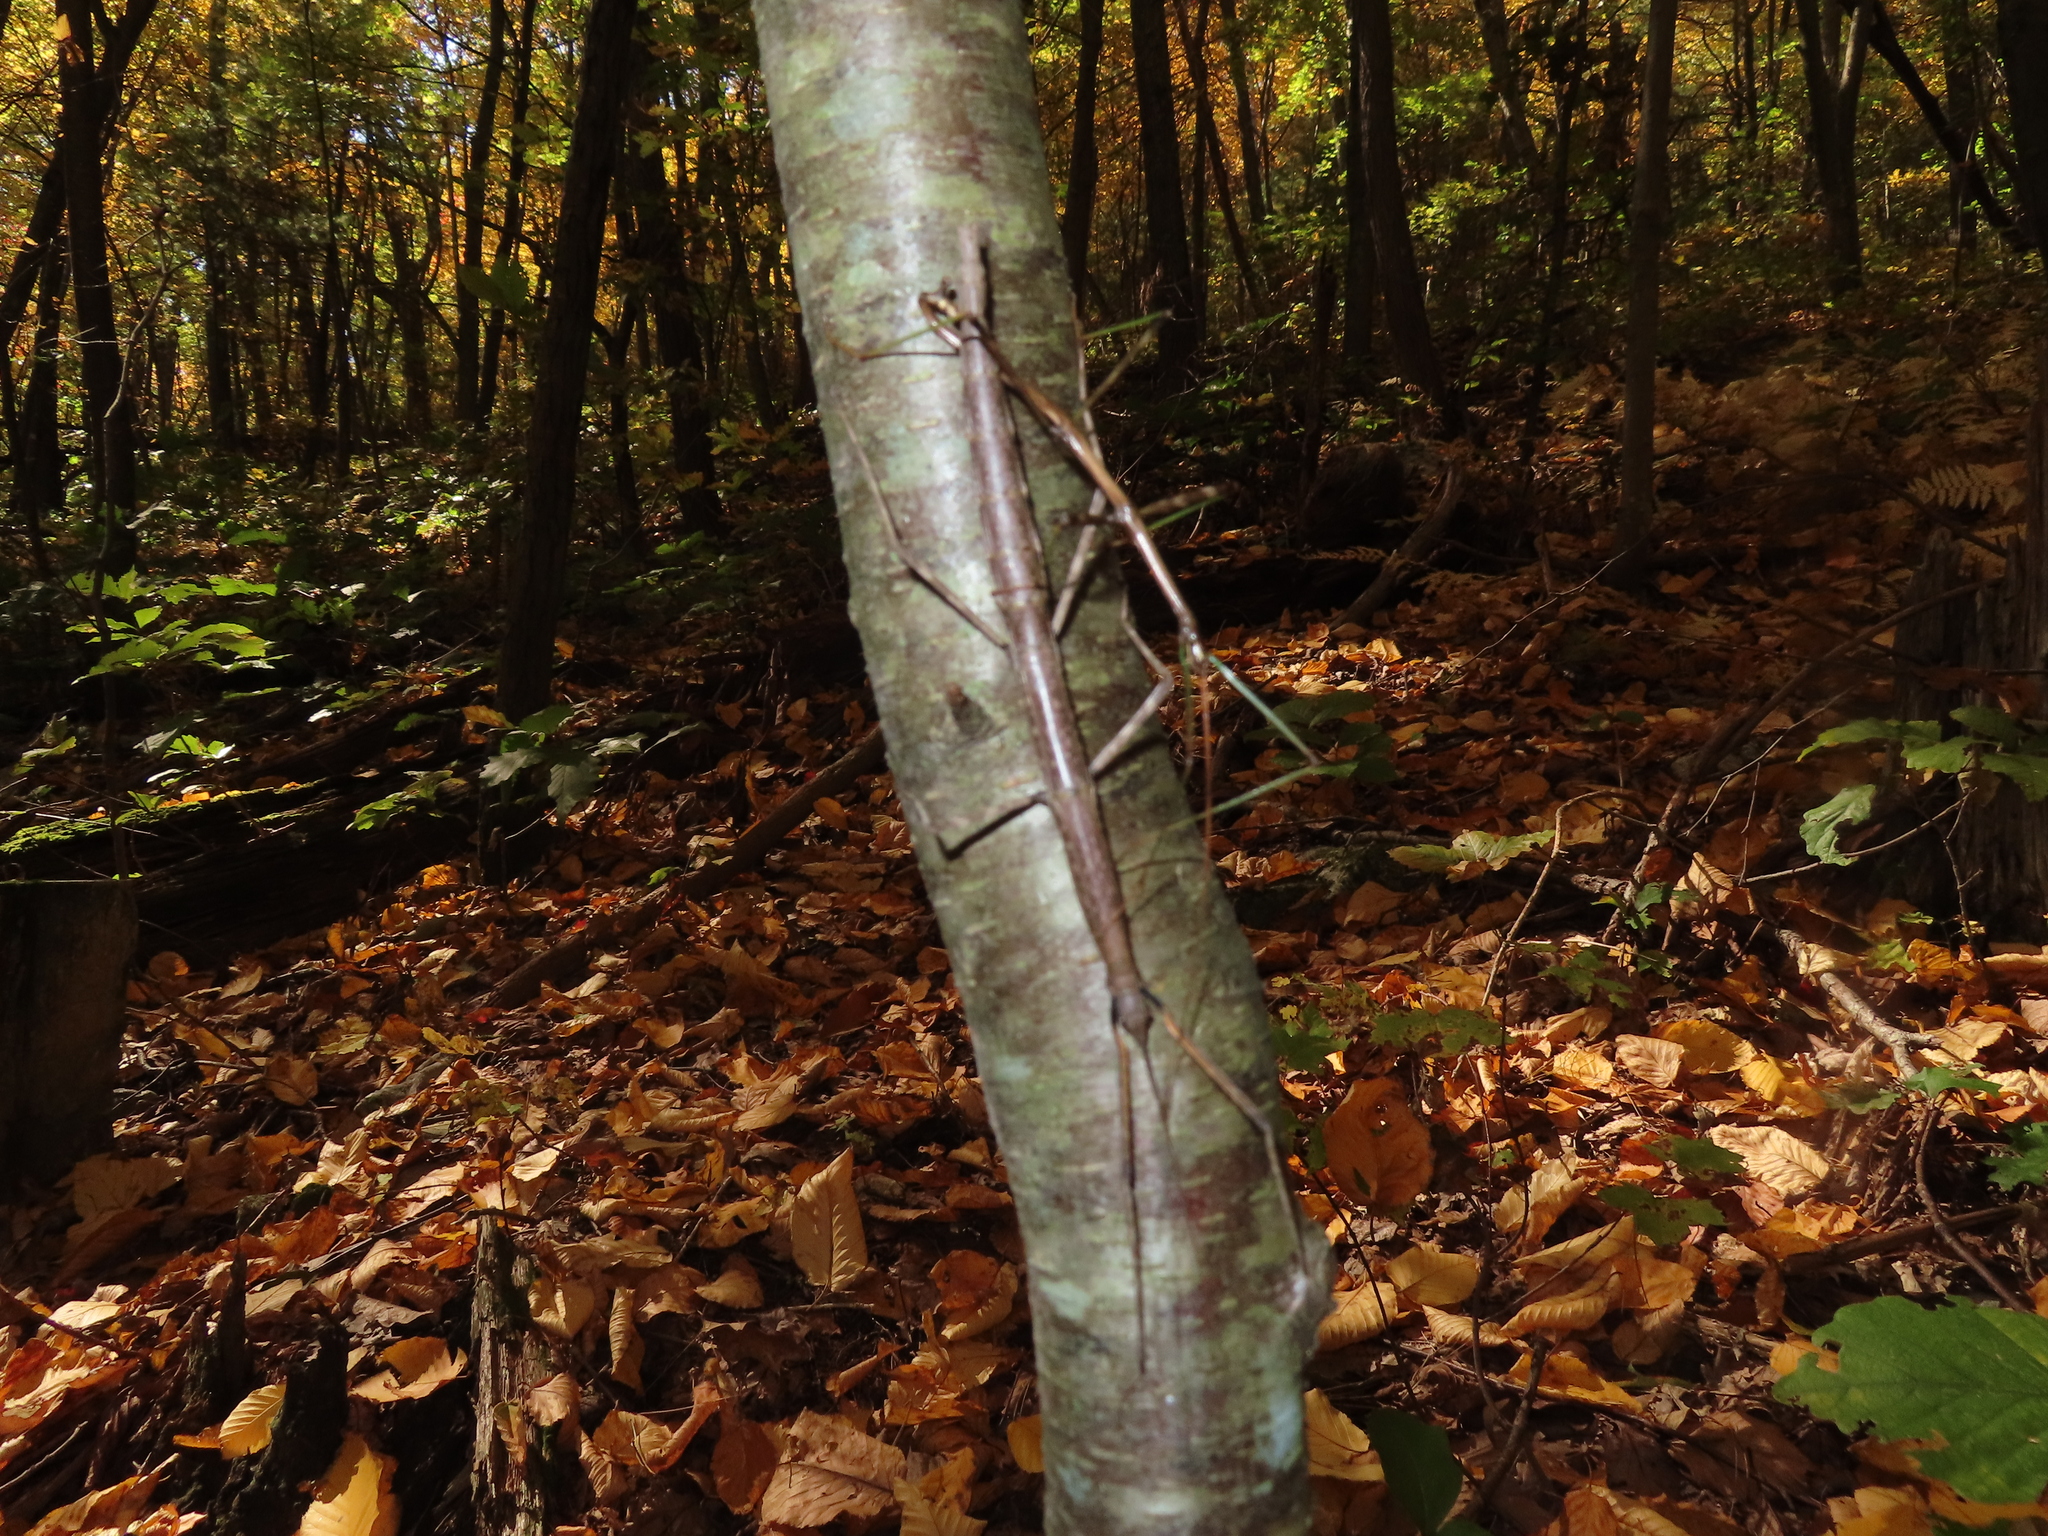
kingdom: Animalia
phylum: Arthropoda
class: Insecta
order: Phasmida
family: Diapheromeridae
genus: Diapheromera
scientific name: Diapheromera femorata
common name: Common american walkingstick
